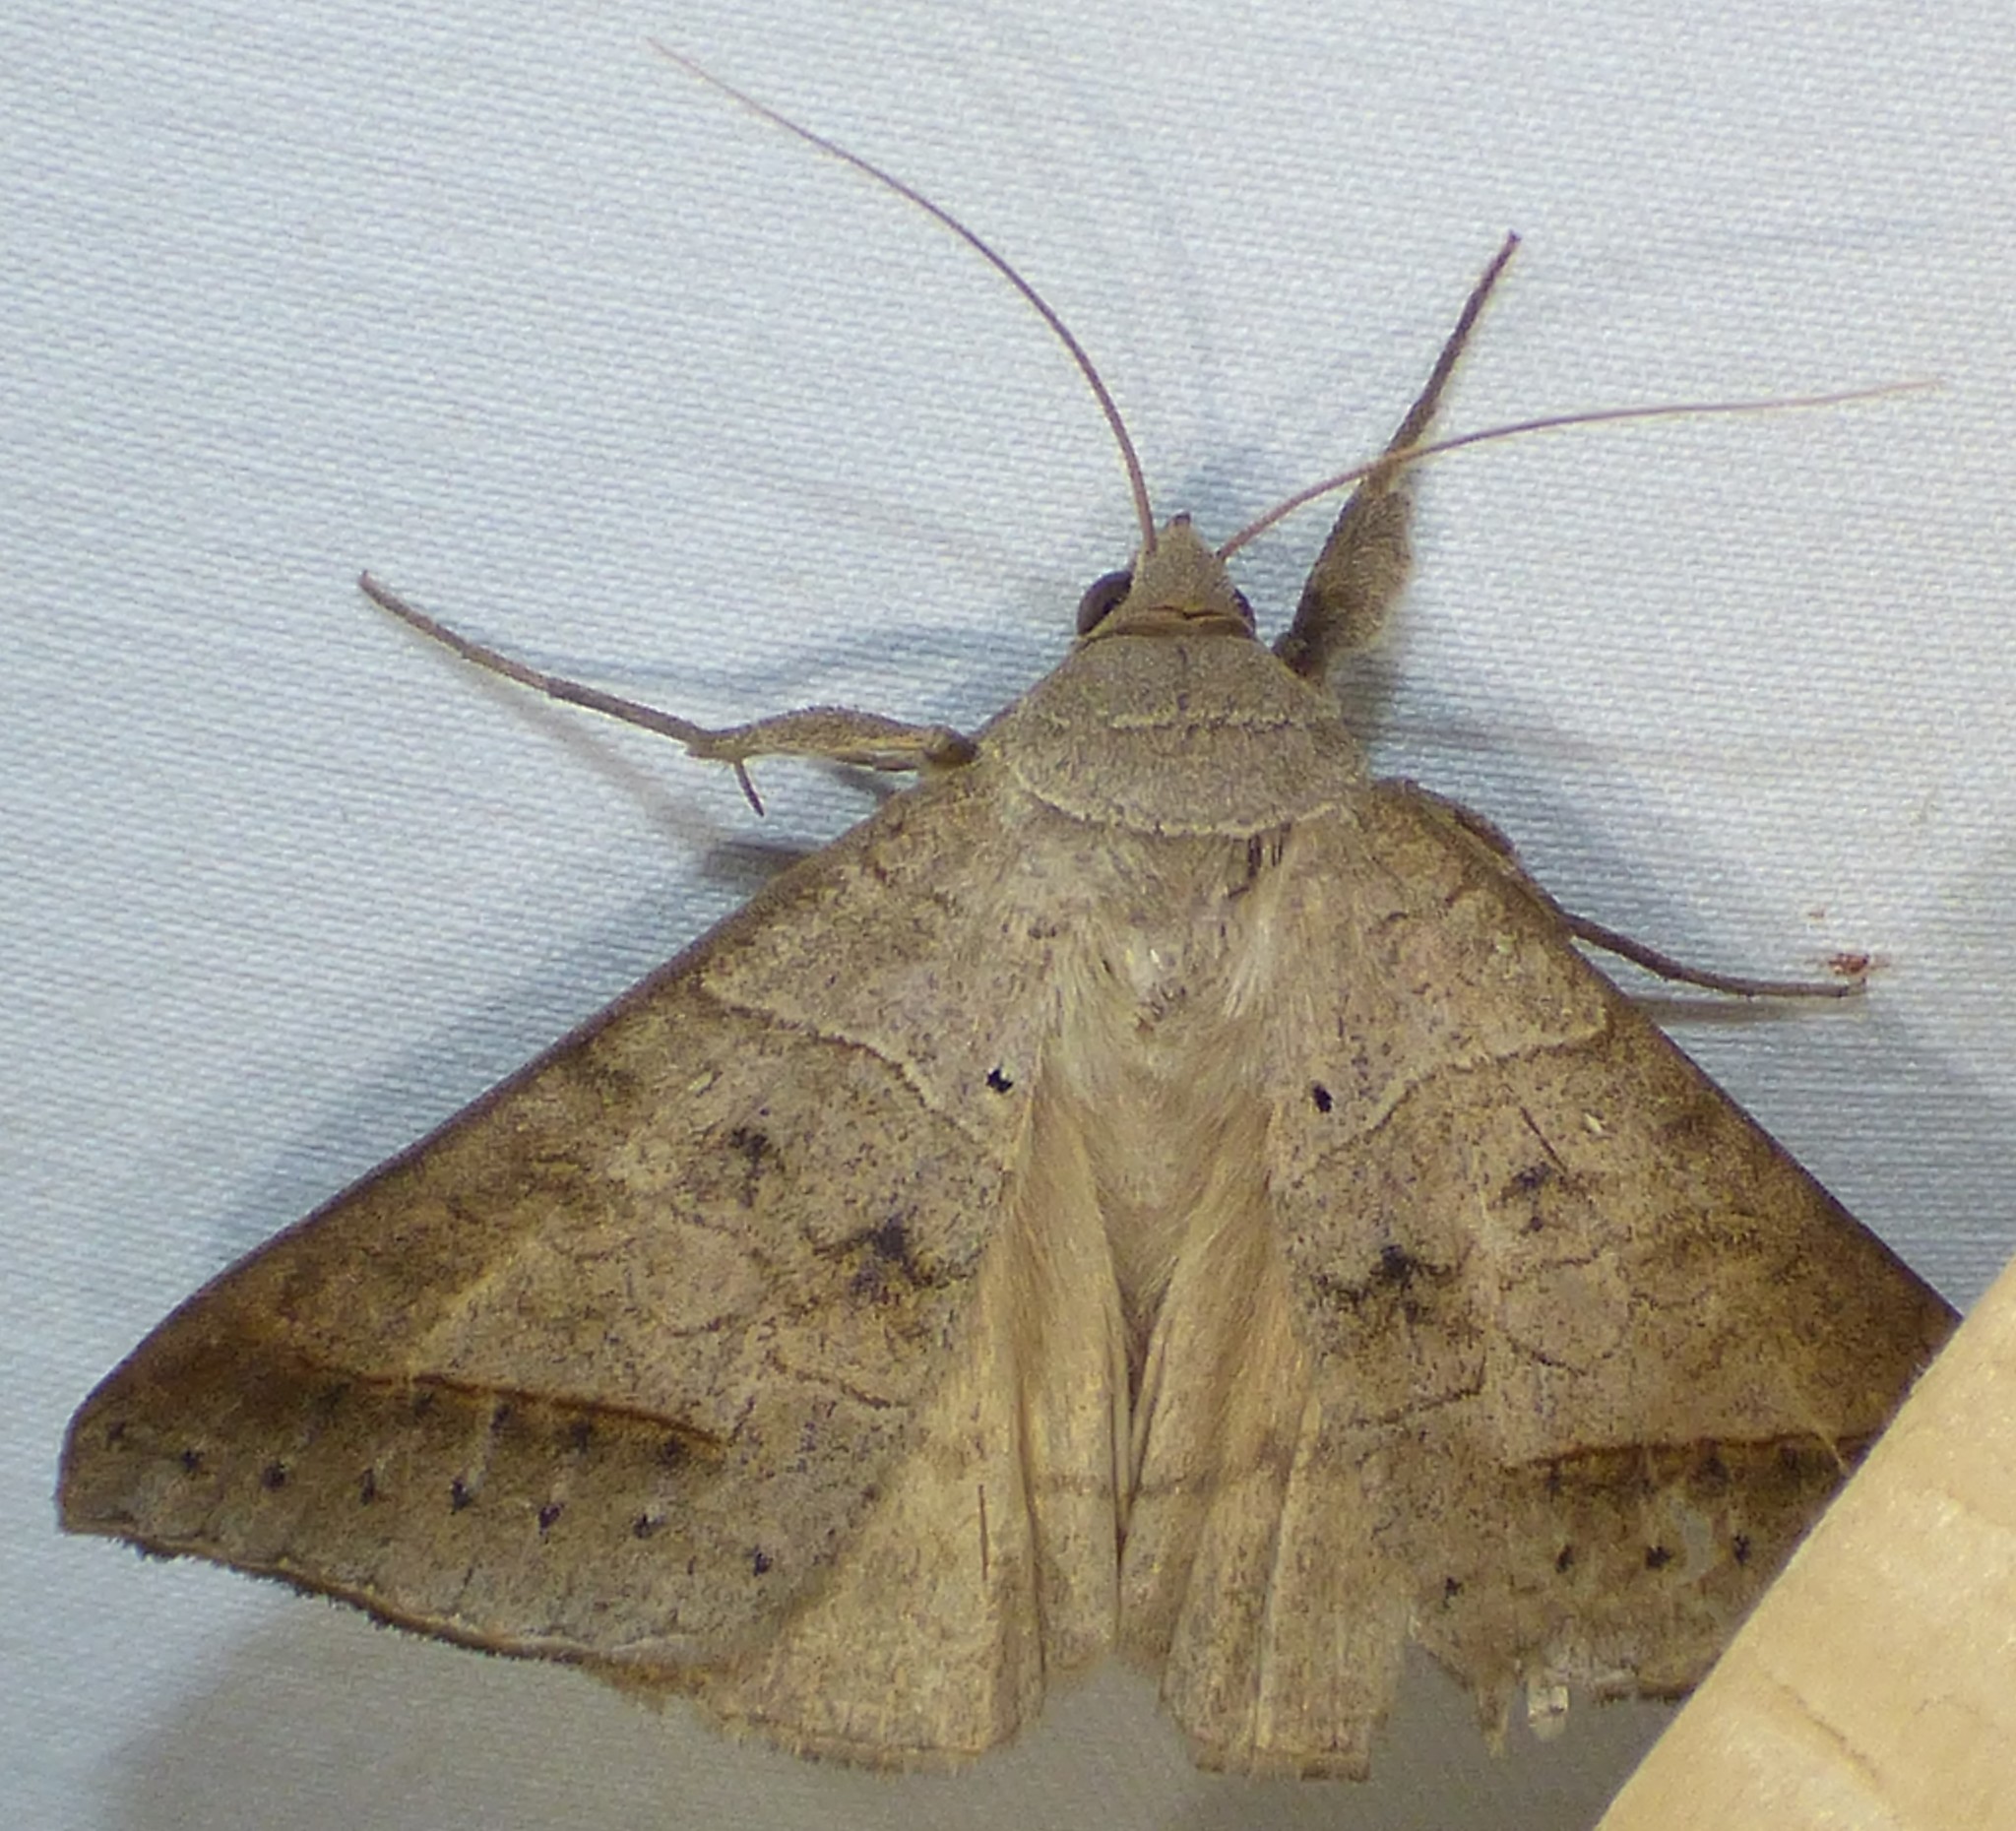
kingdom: Animalia
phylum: Arthropoda
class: Insecta
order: Lepidoptera
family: Erebidae
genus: Mocis
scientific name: Mocis marcida
